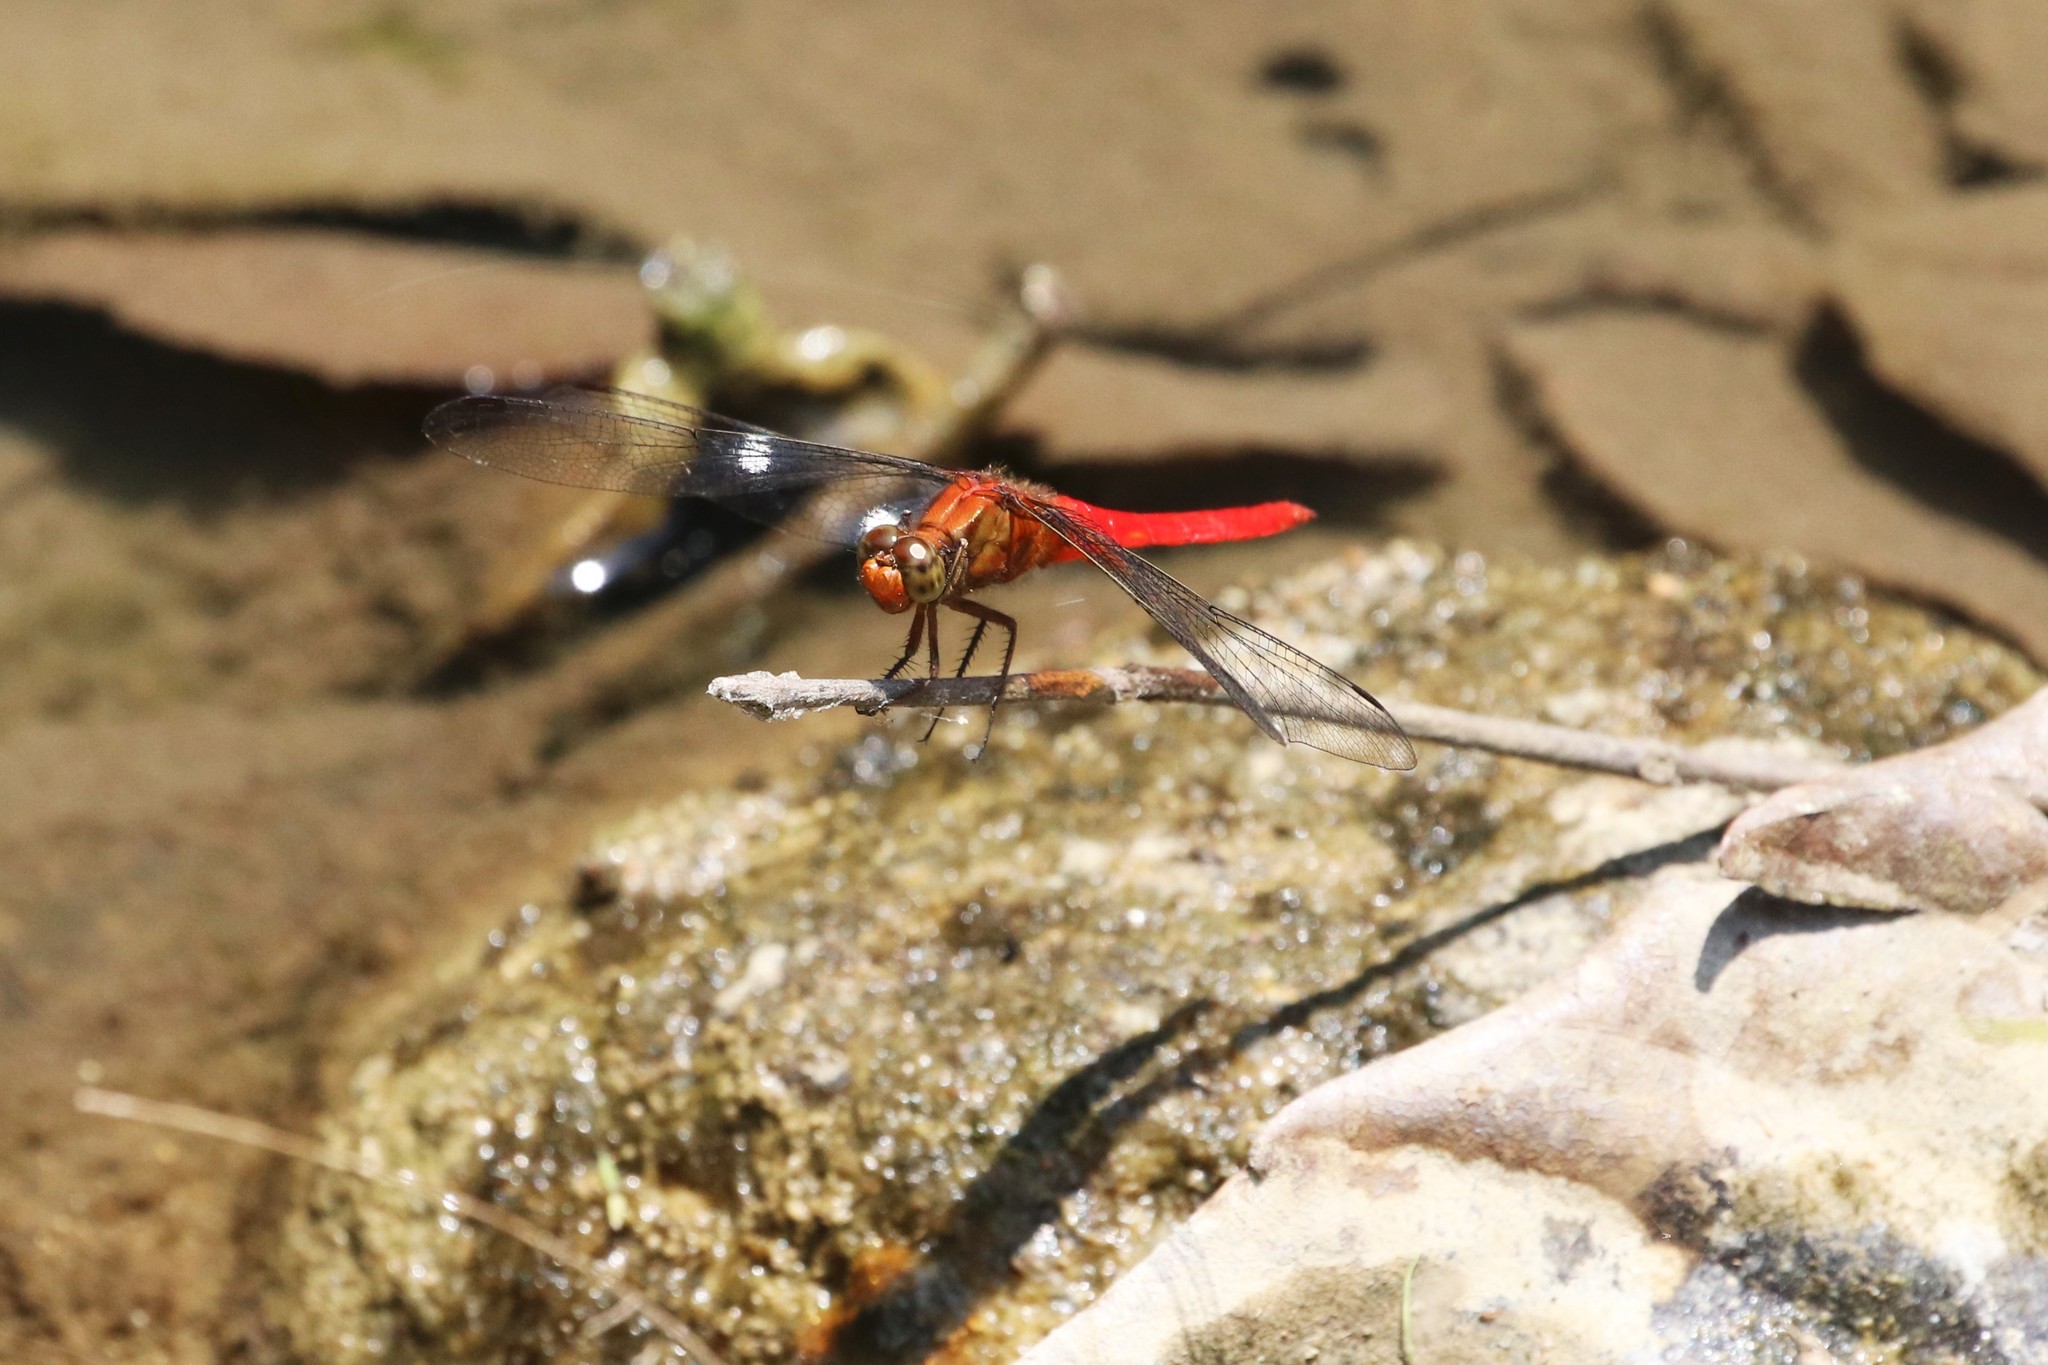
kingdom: Animalia
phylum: Arthropoda
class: Insecta
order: Odonata
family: Libellulidae
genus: Orthetrum
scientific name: Orthetrum testaceum
